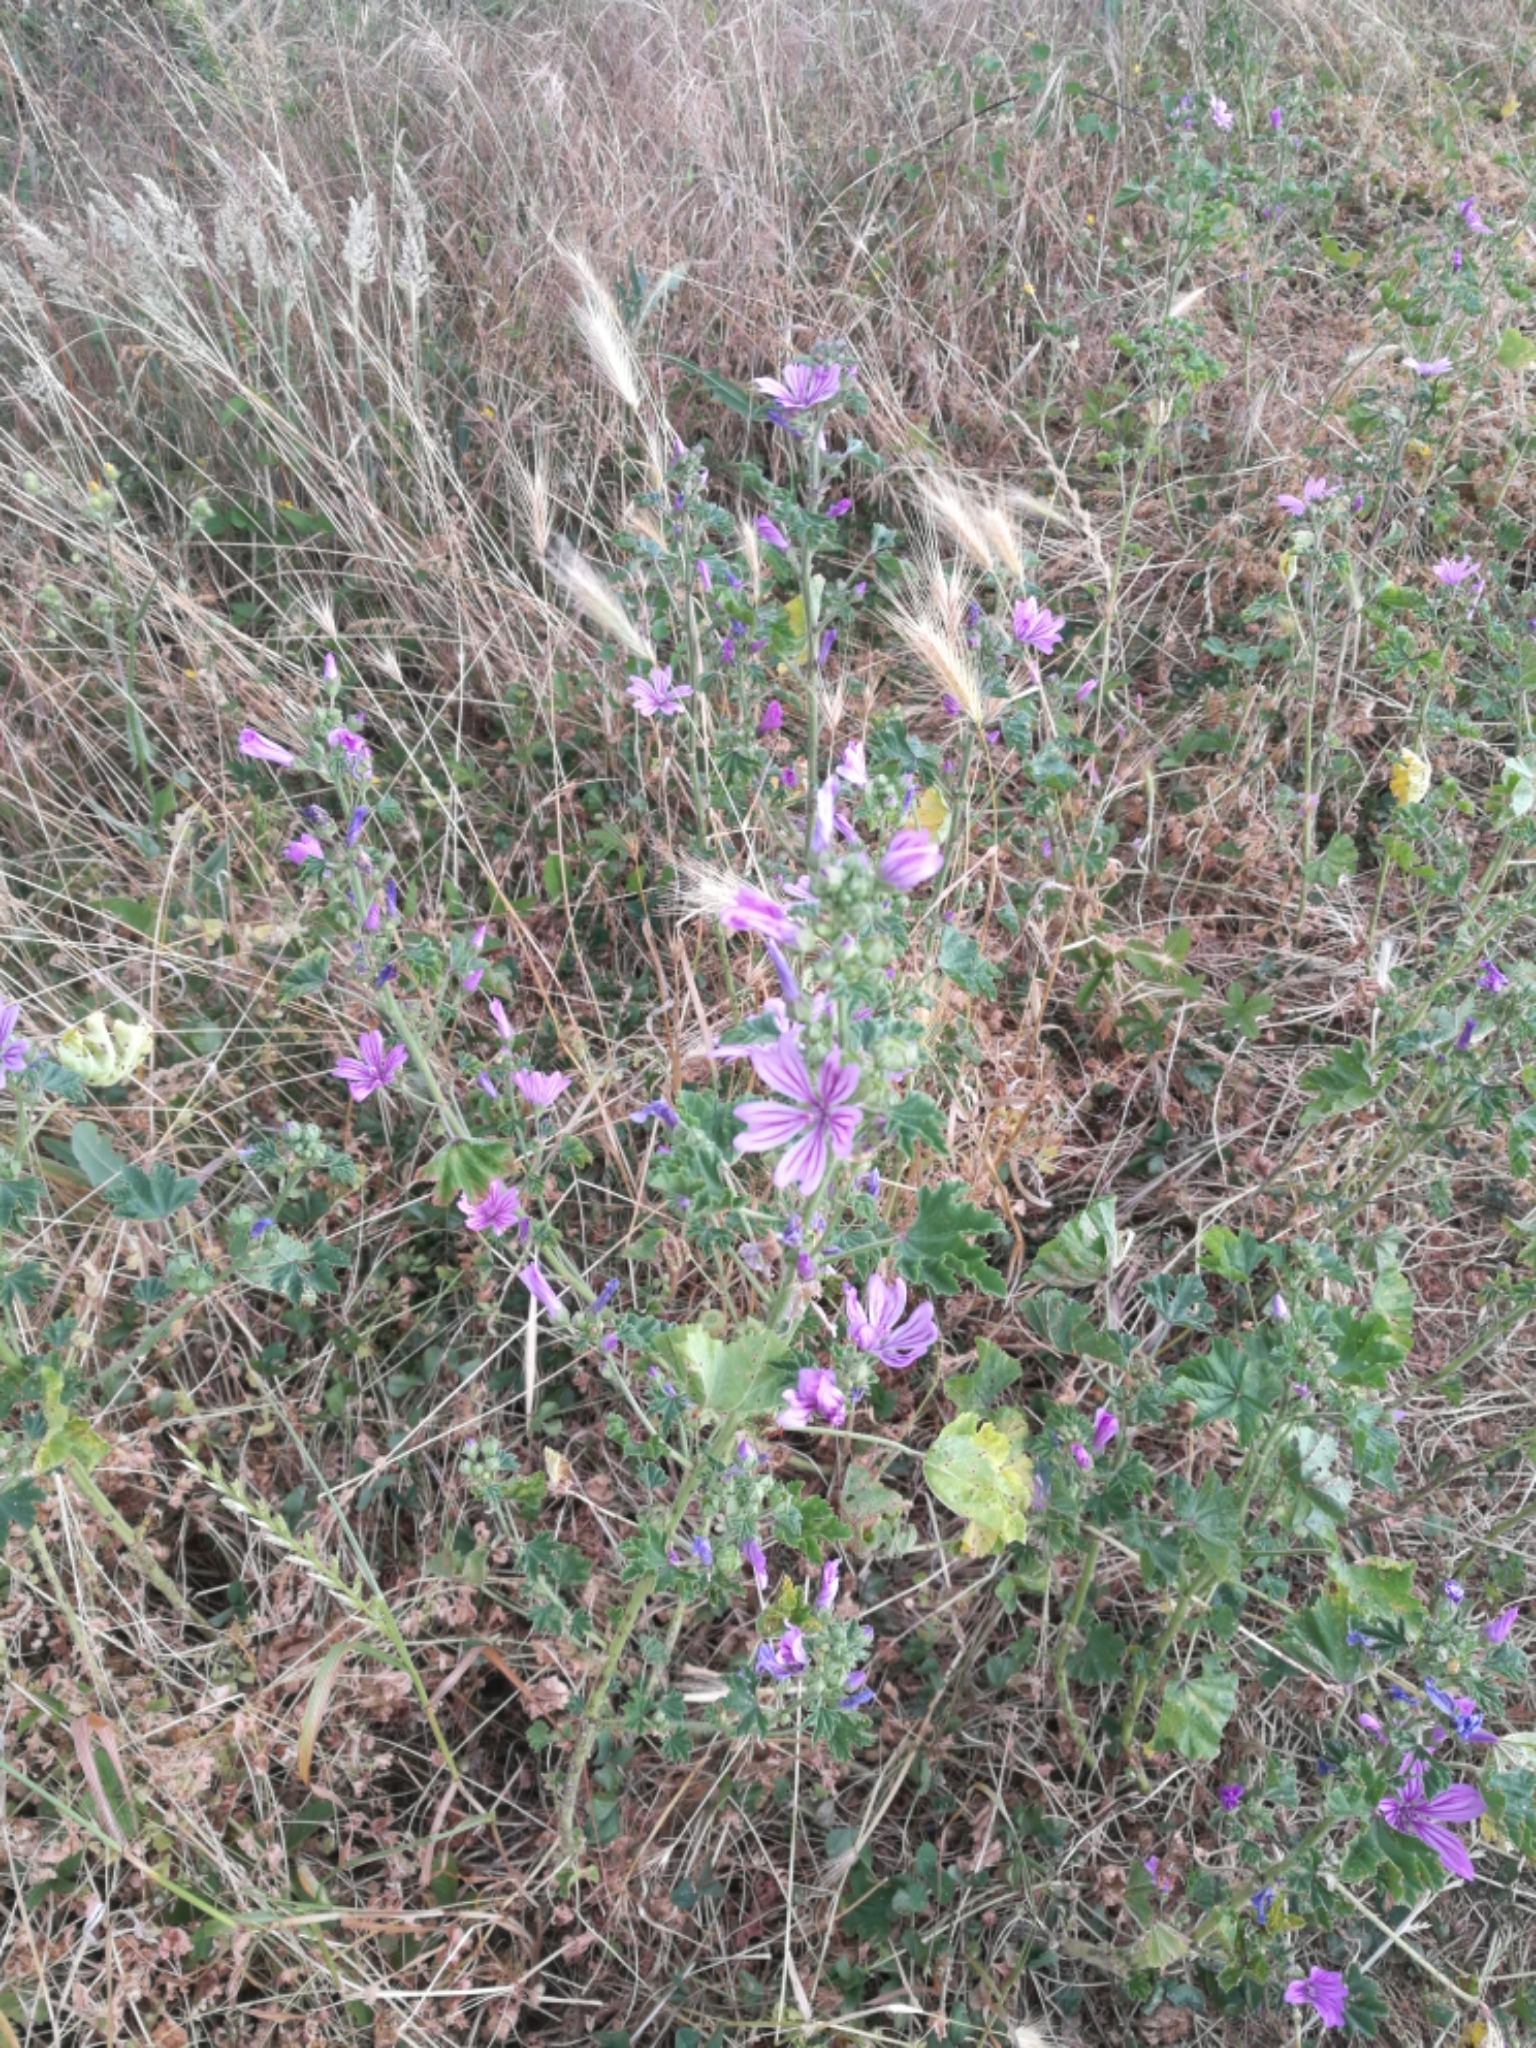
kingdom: Plantae
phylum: Tracheophyta
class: Magnoliopsida
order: Malvales
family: Malvaceae
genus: Malva
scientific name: Malva sylvestris
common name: Common mallow
